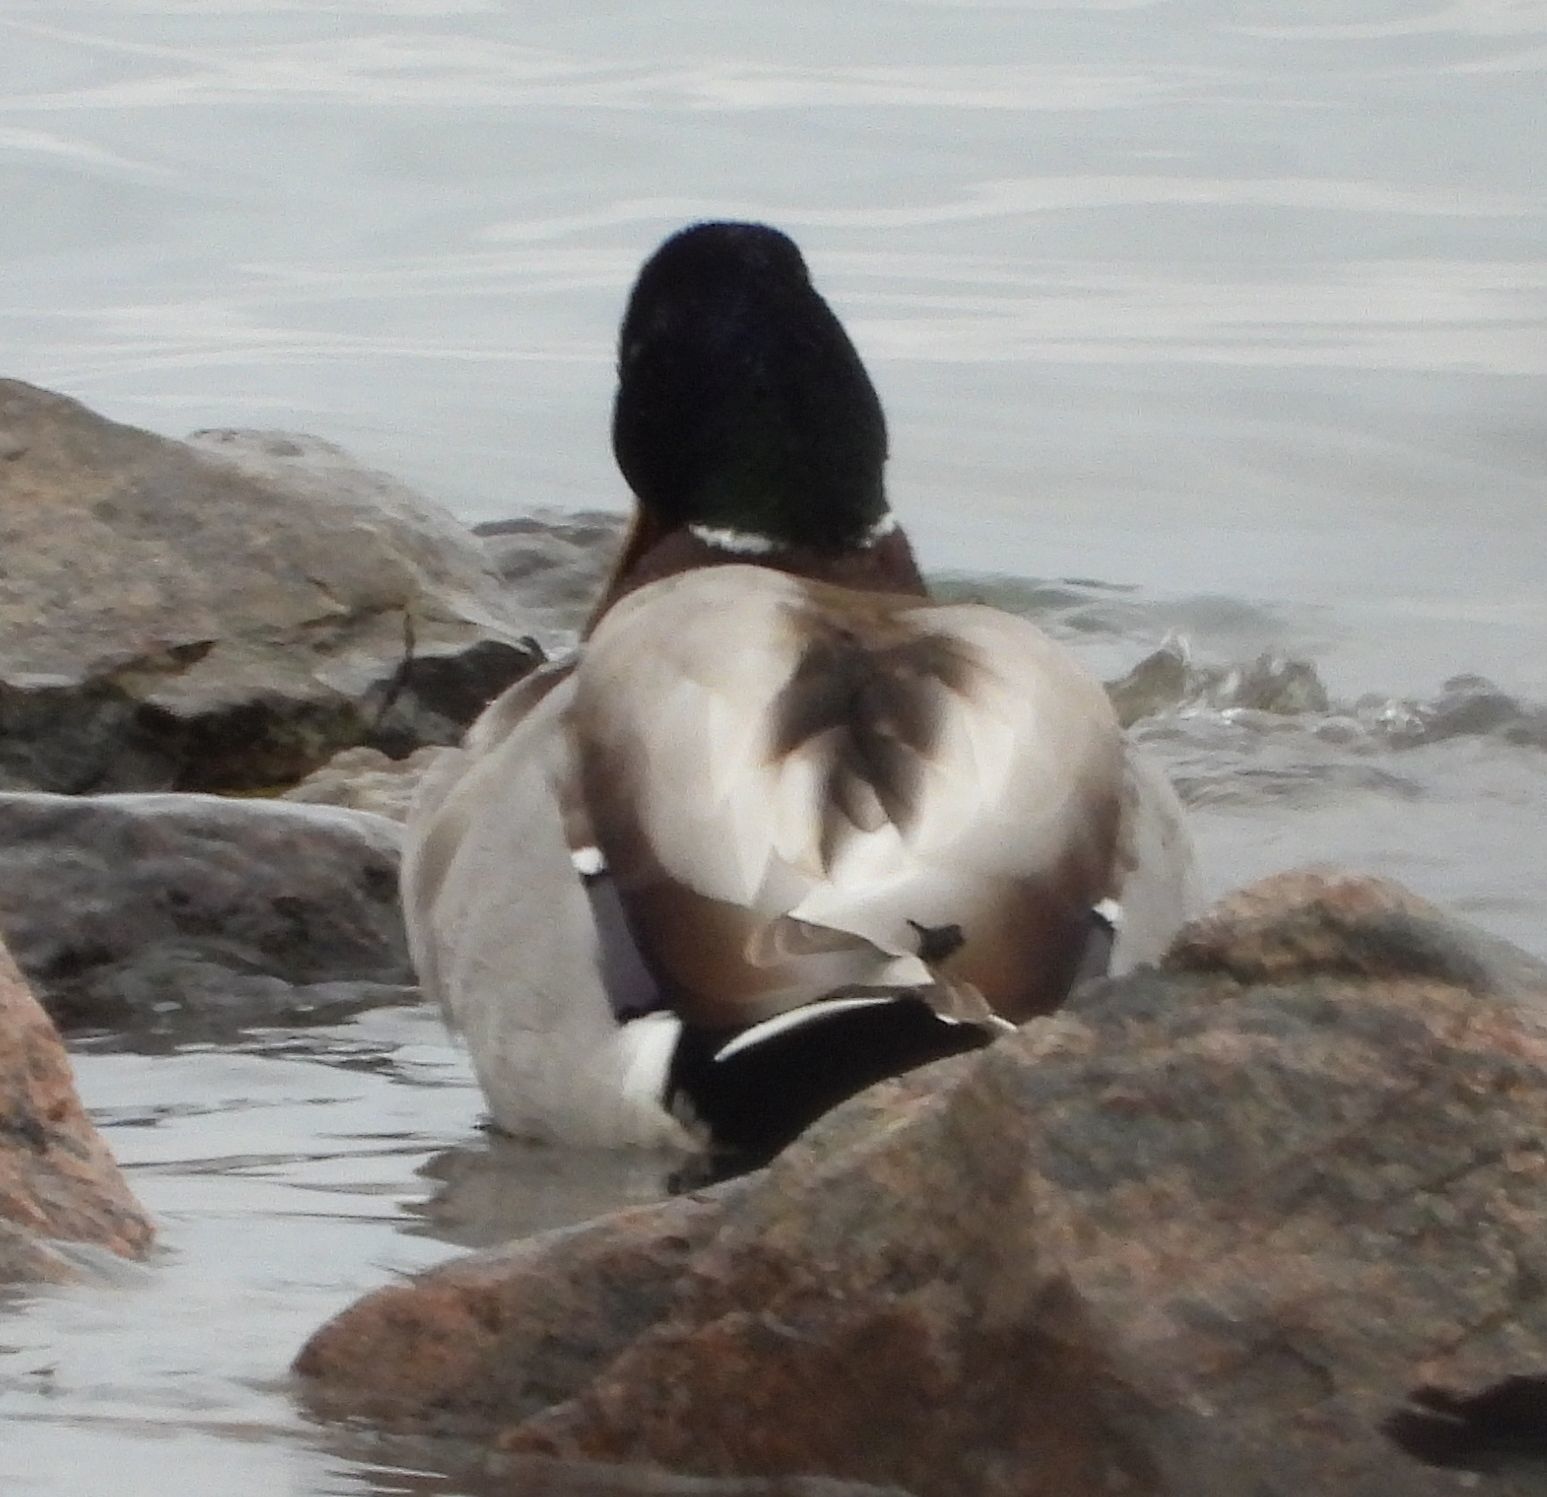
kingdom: Animalia
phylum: Chordata
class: Aves
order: Anseriformes
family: Anatidae
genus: Anas
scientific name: Anas platyrhynchos
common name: Mallard
